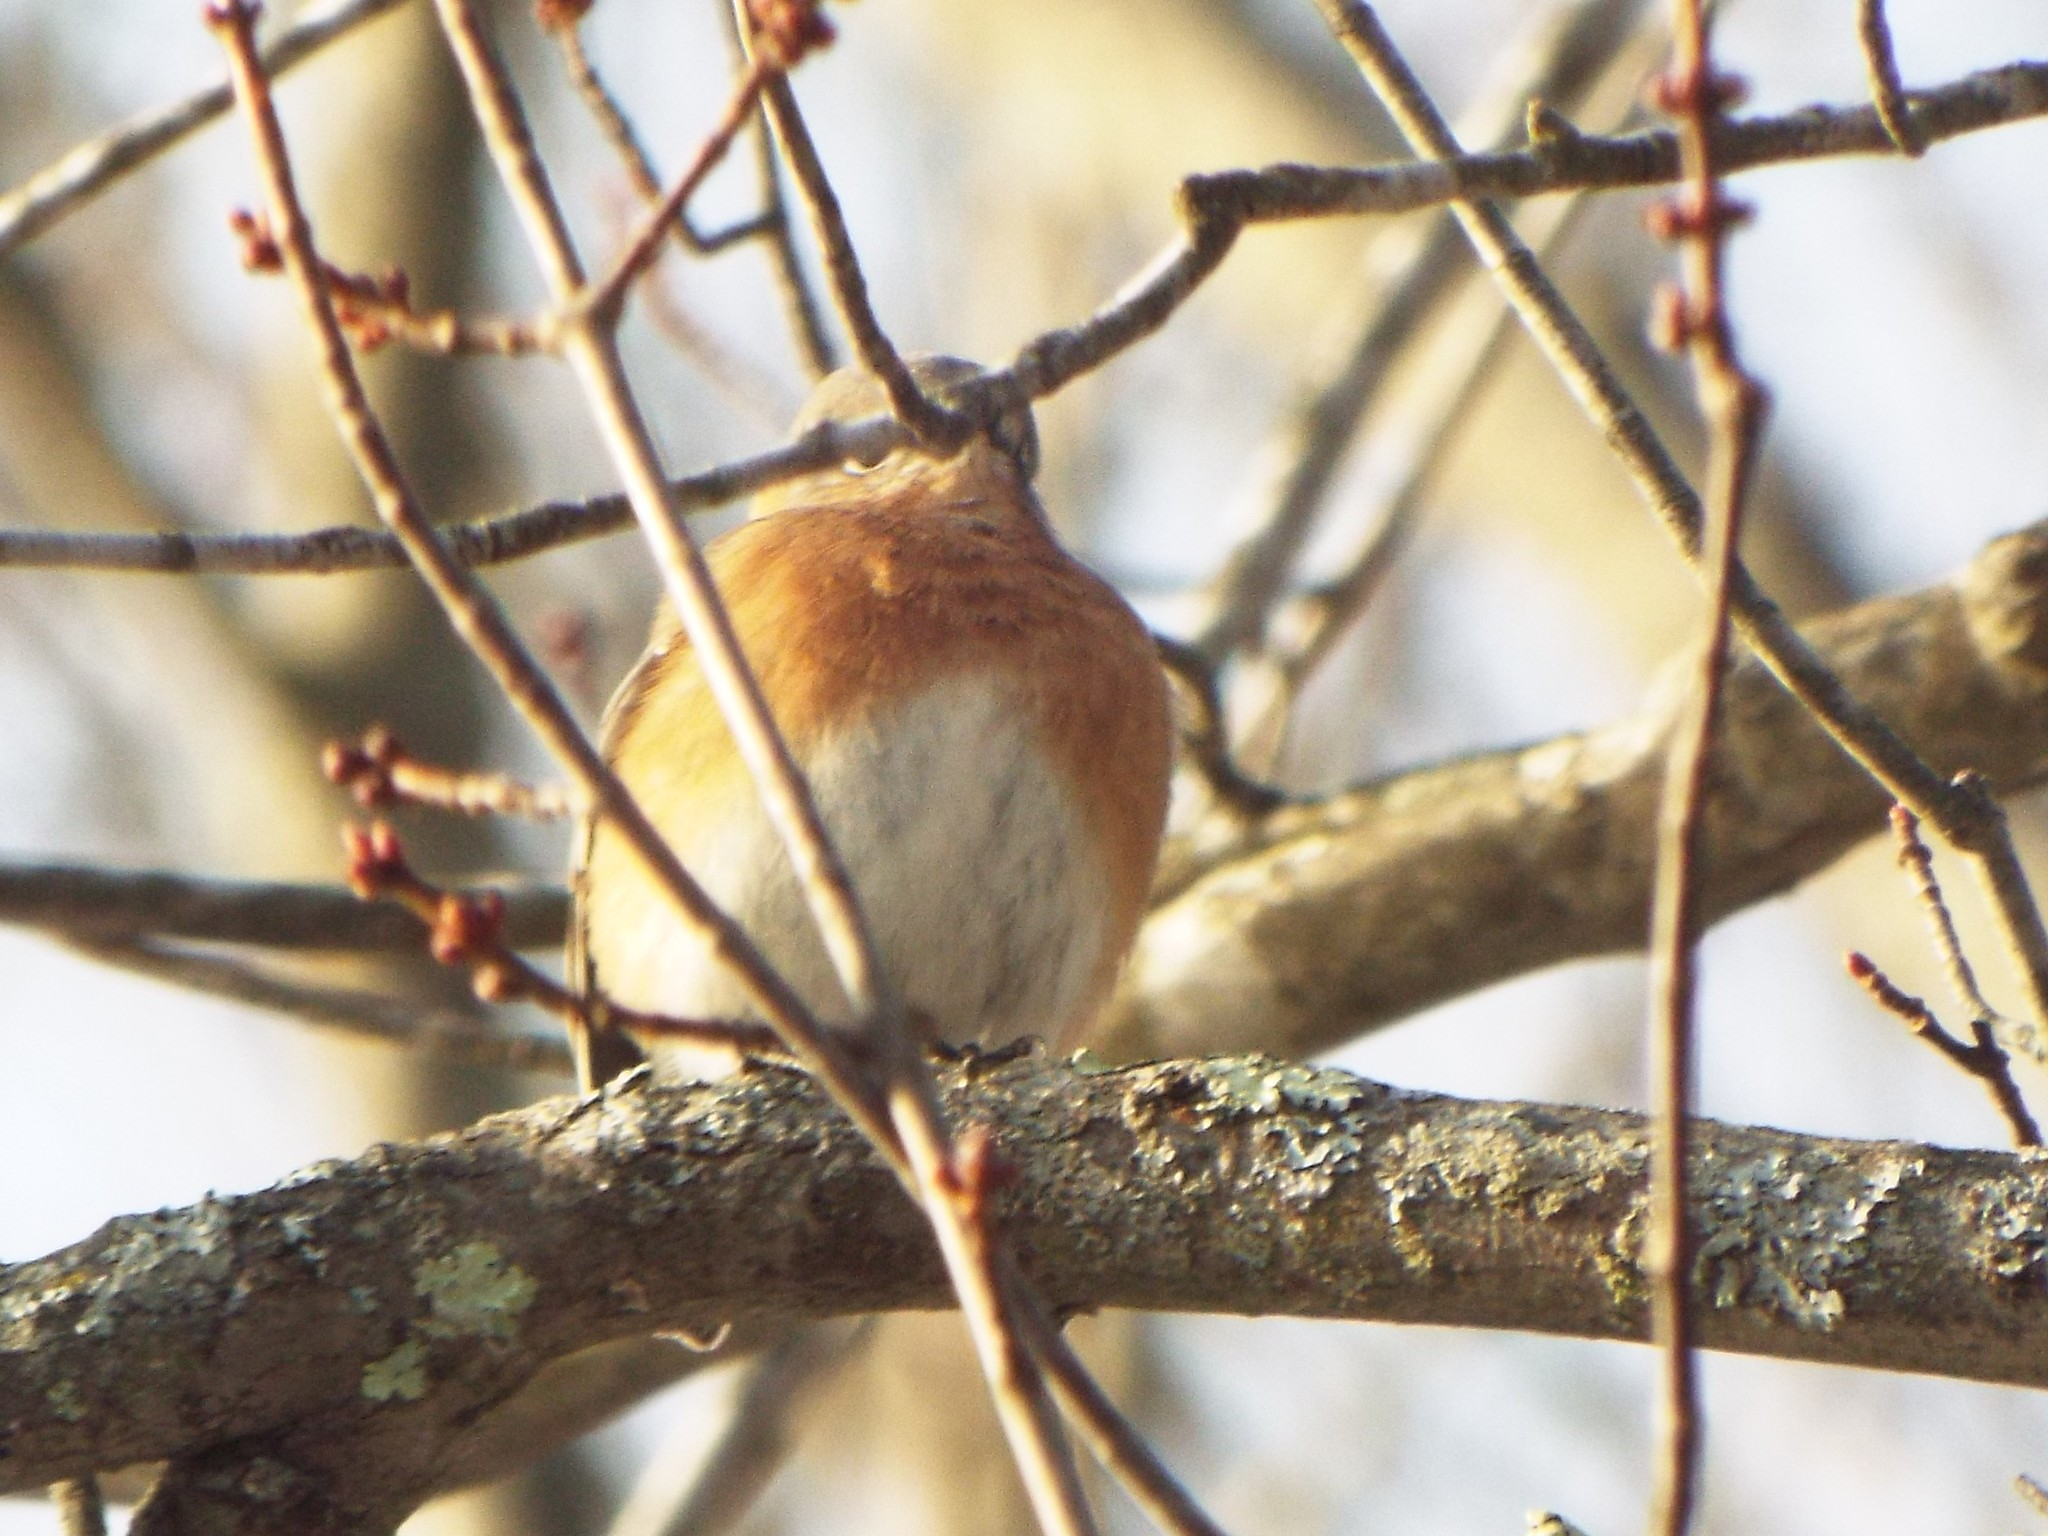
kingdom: Animalia
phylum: Chordata
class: Aves
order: Passeriformes
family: Turdidae
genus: Sialia
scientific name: Sialia sialis
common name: Eastern bluebird
